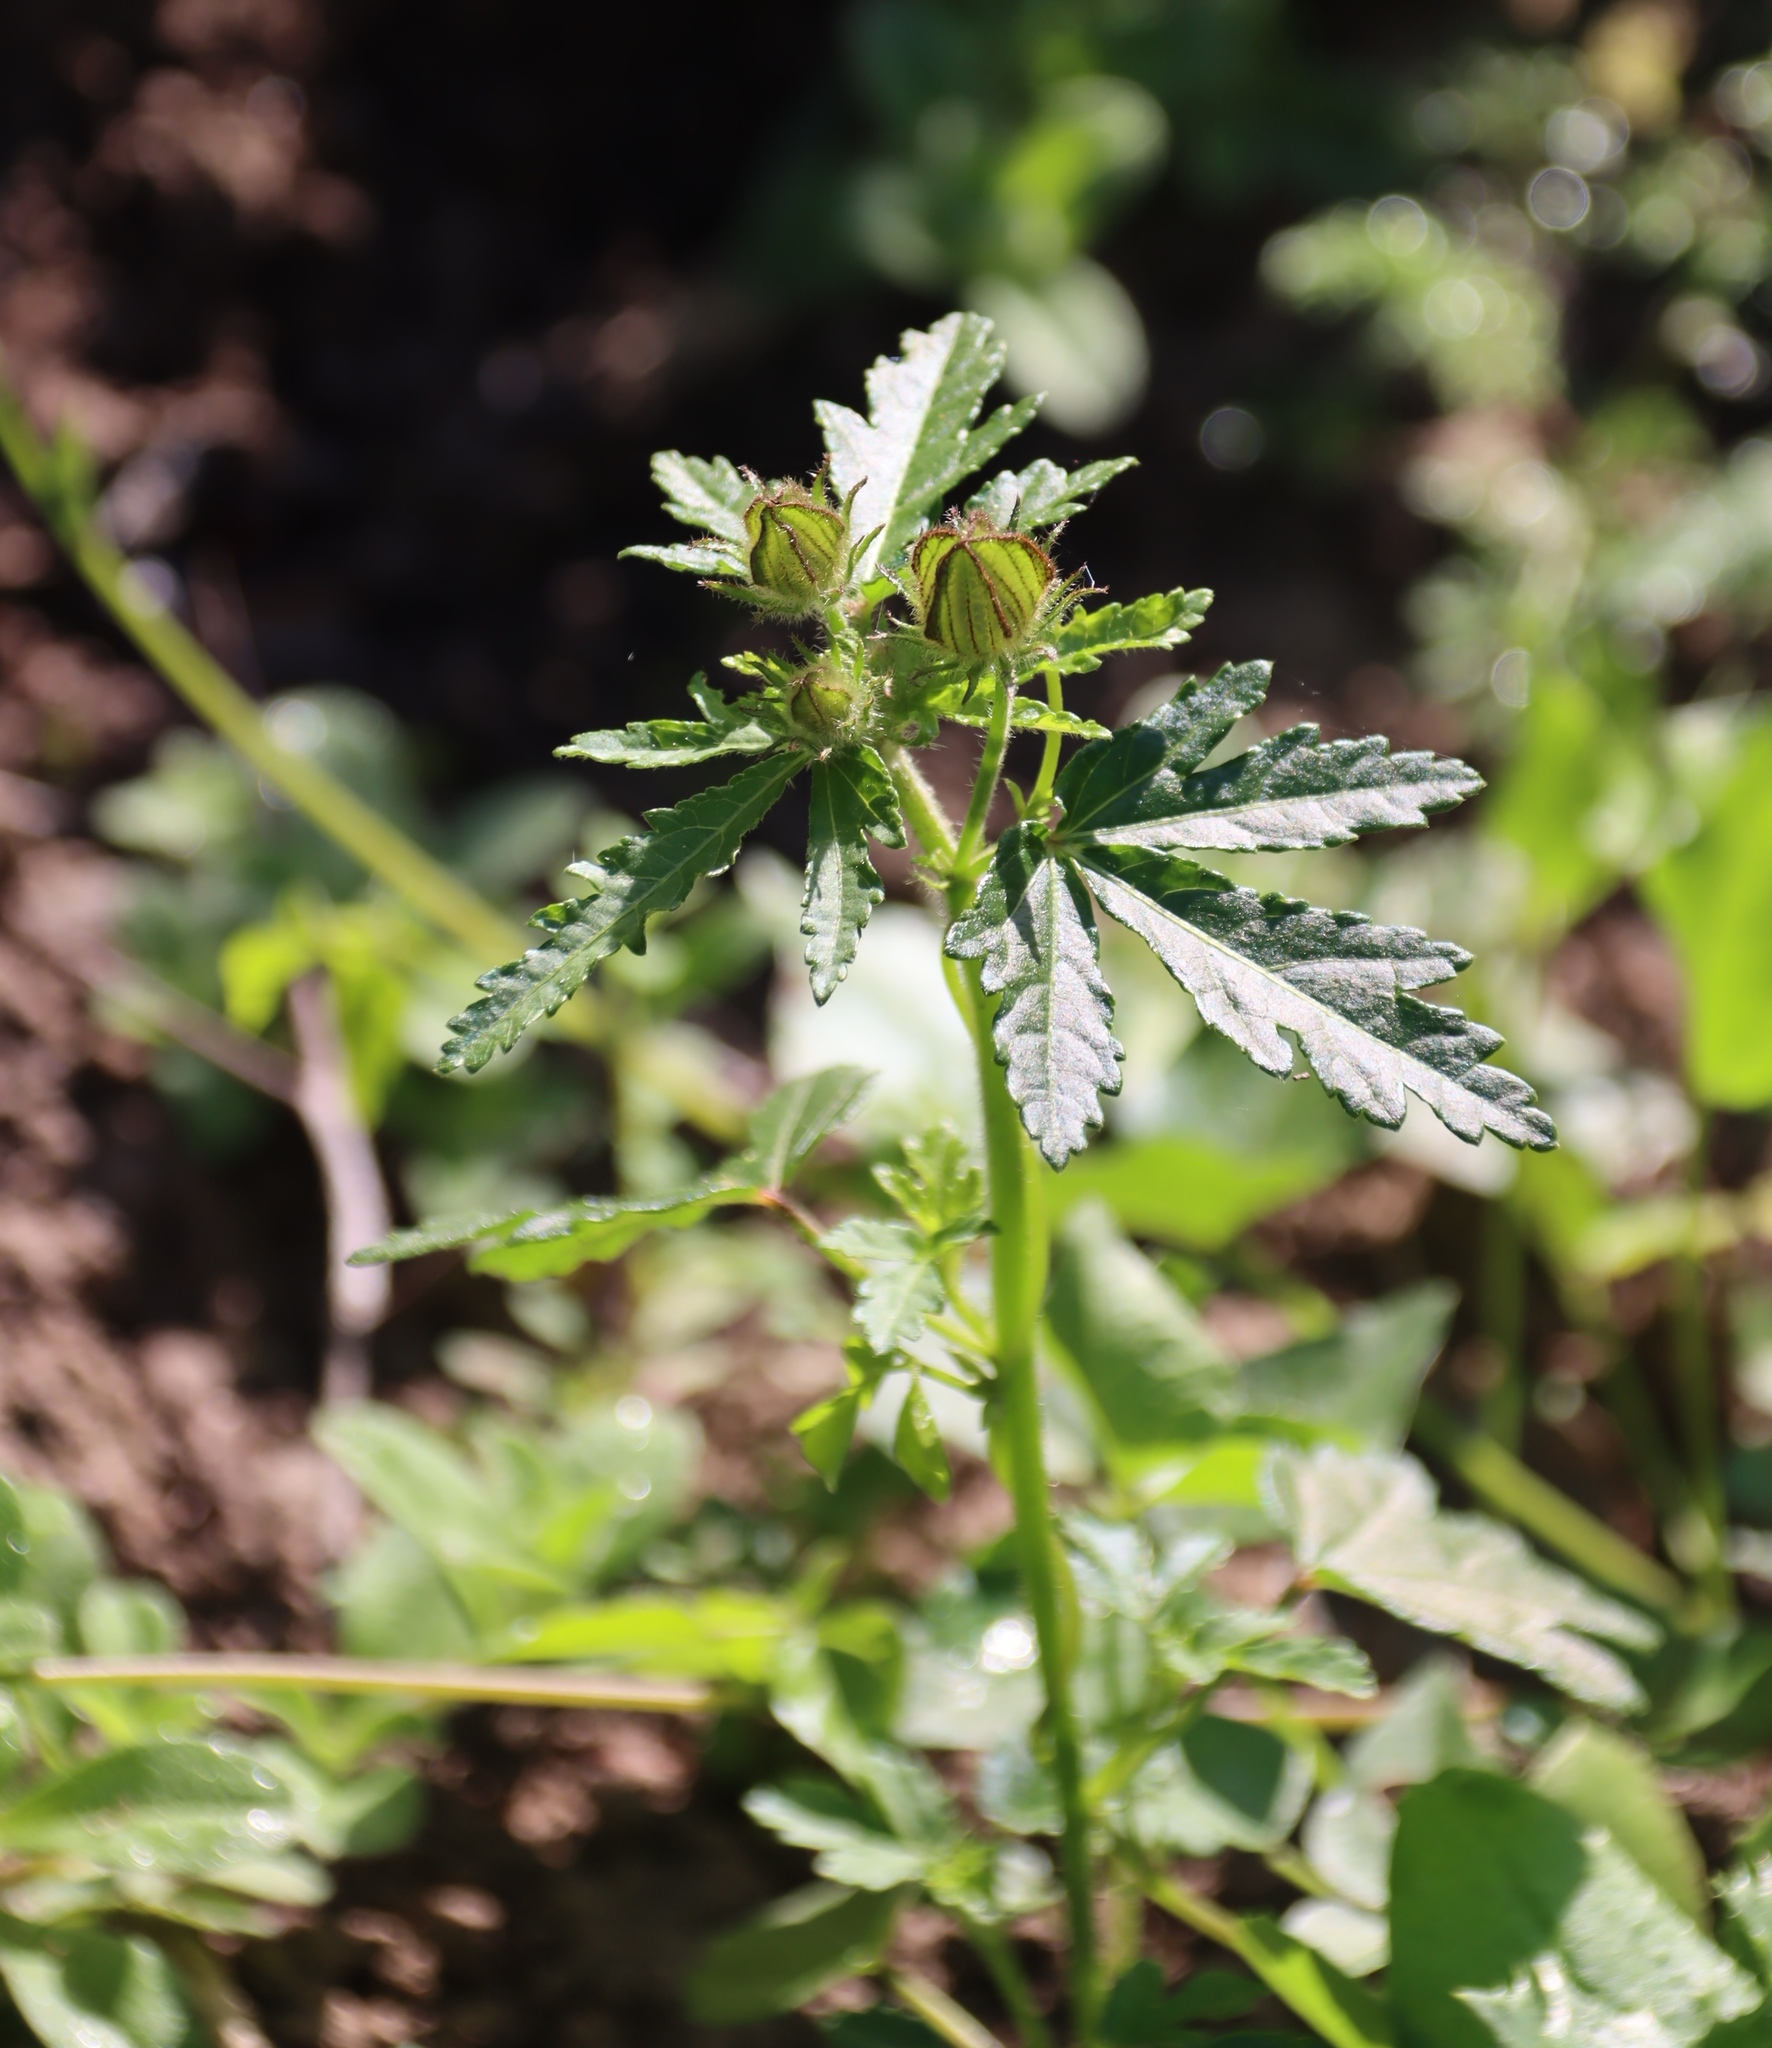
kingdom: Plantae
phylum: Tracheophyta
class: Magnoliopsida
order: Malvales
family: Malvaceae
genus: Hibiscus
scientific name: Hibiscus trionum
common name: Bladder ketmia
